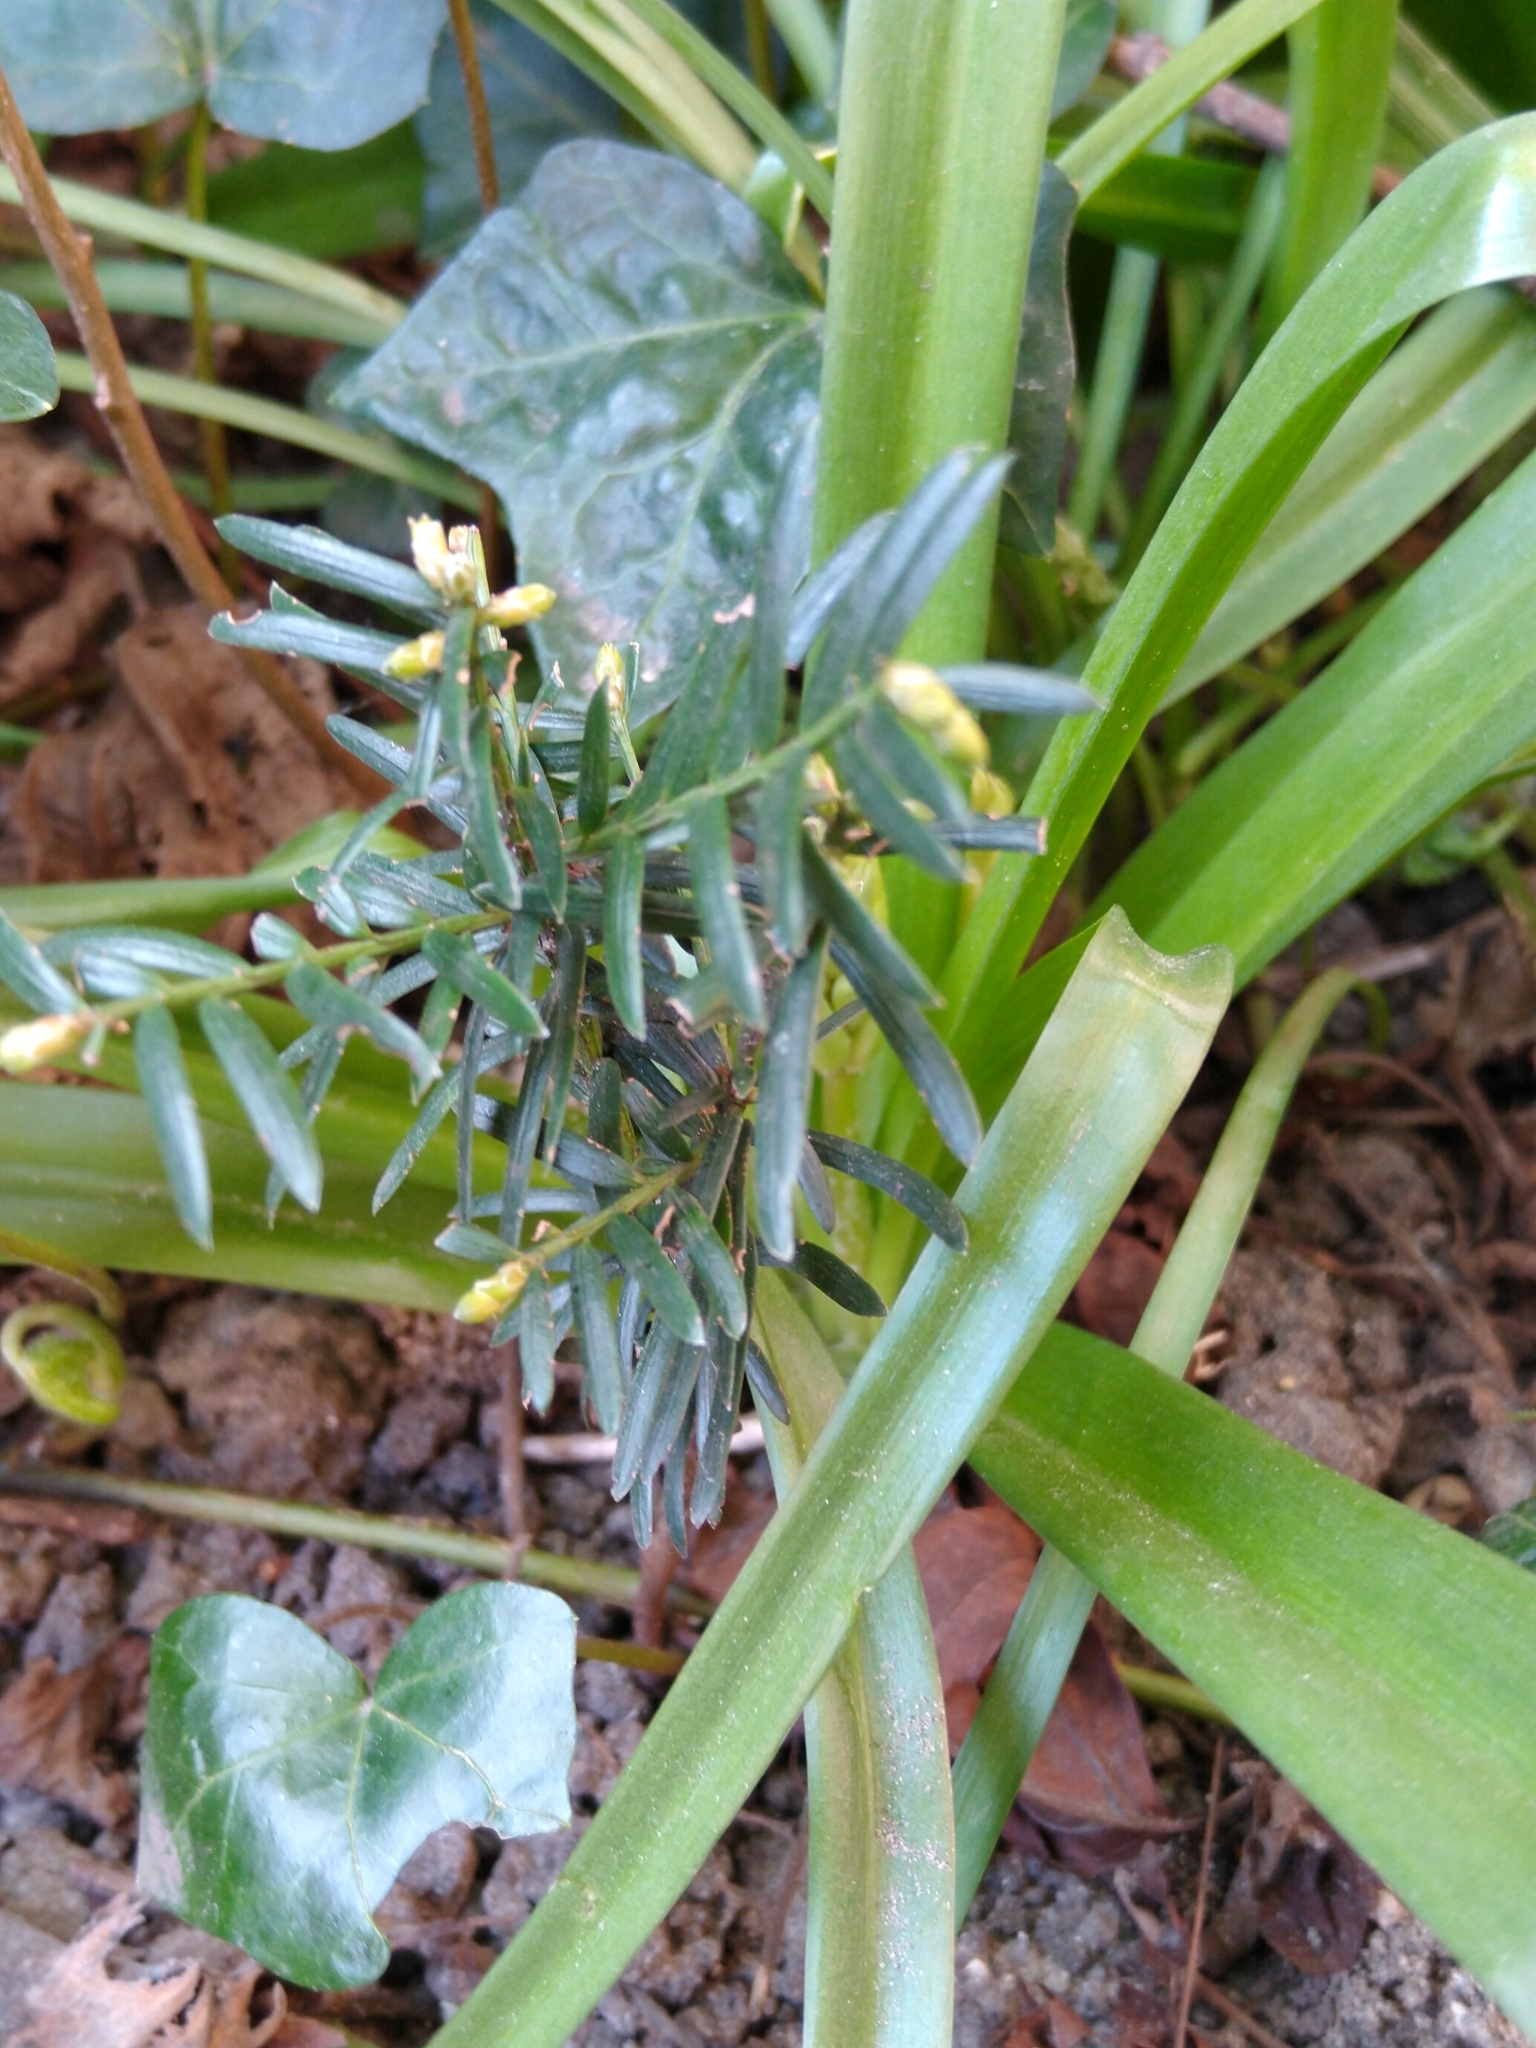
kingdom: Plantae
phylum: Tracheophyta
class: Pinopsida
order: Pinales
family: Taxaceae
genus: Taxus
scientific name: Taxus baccata
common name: Yew
